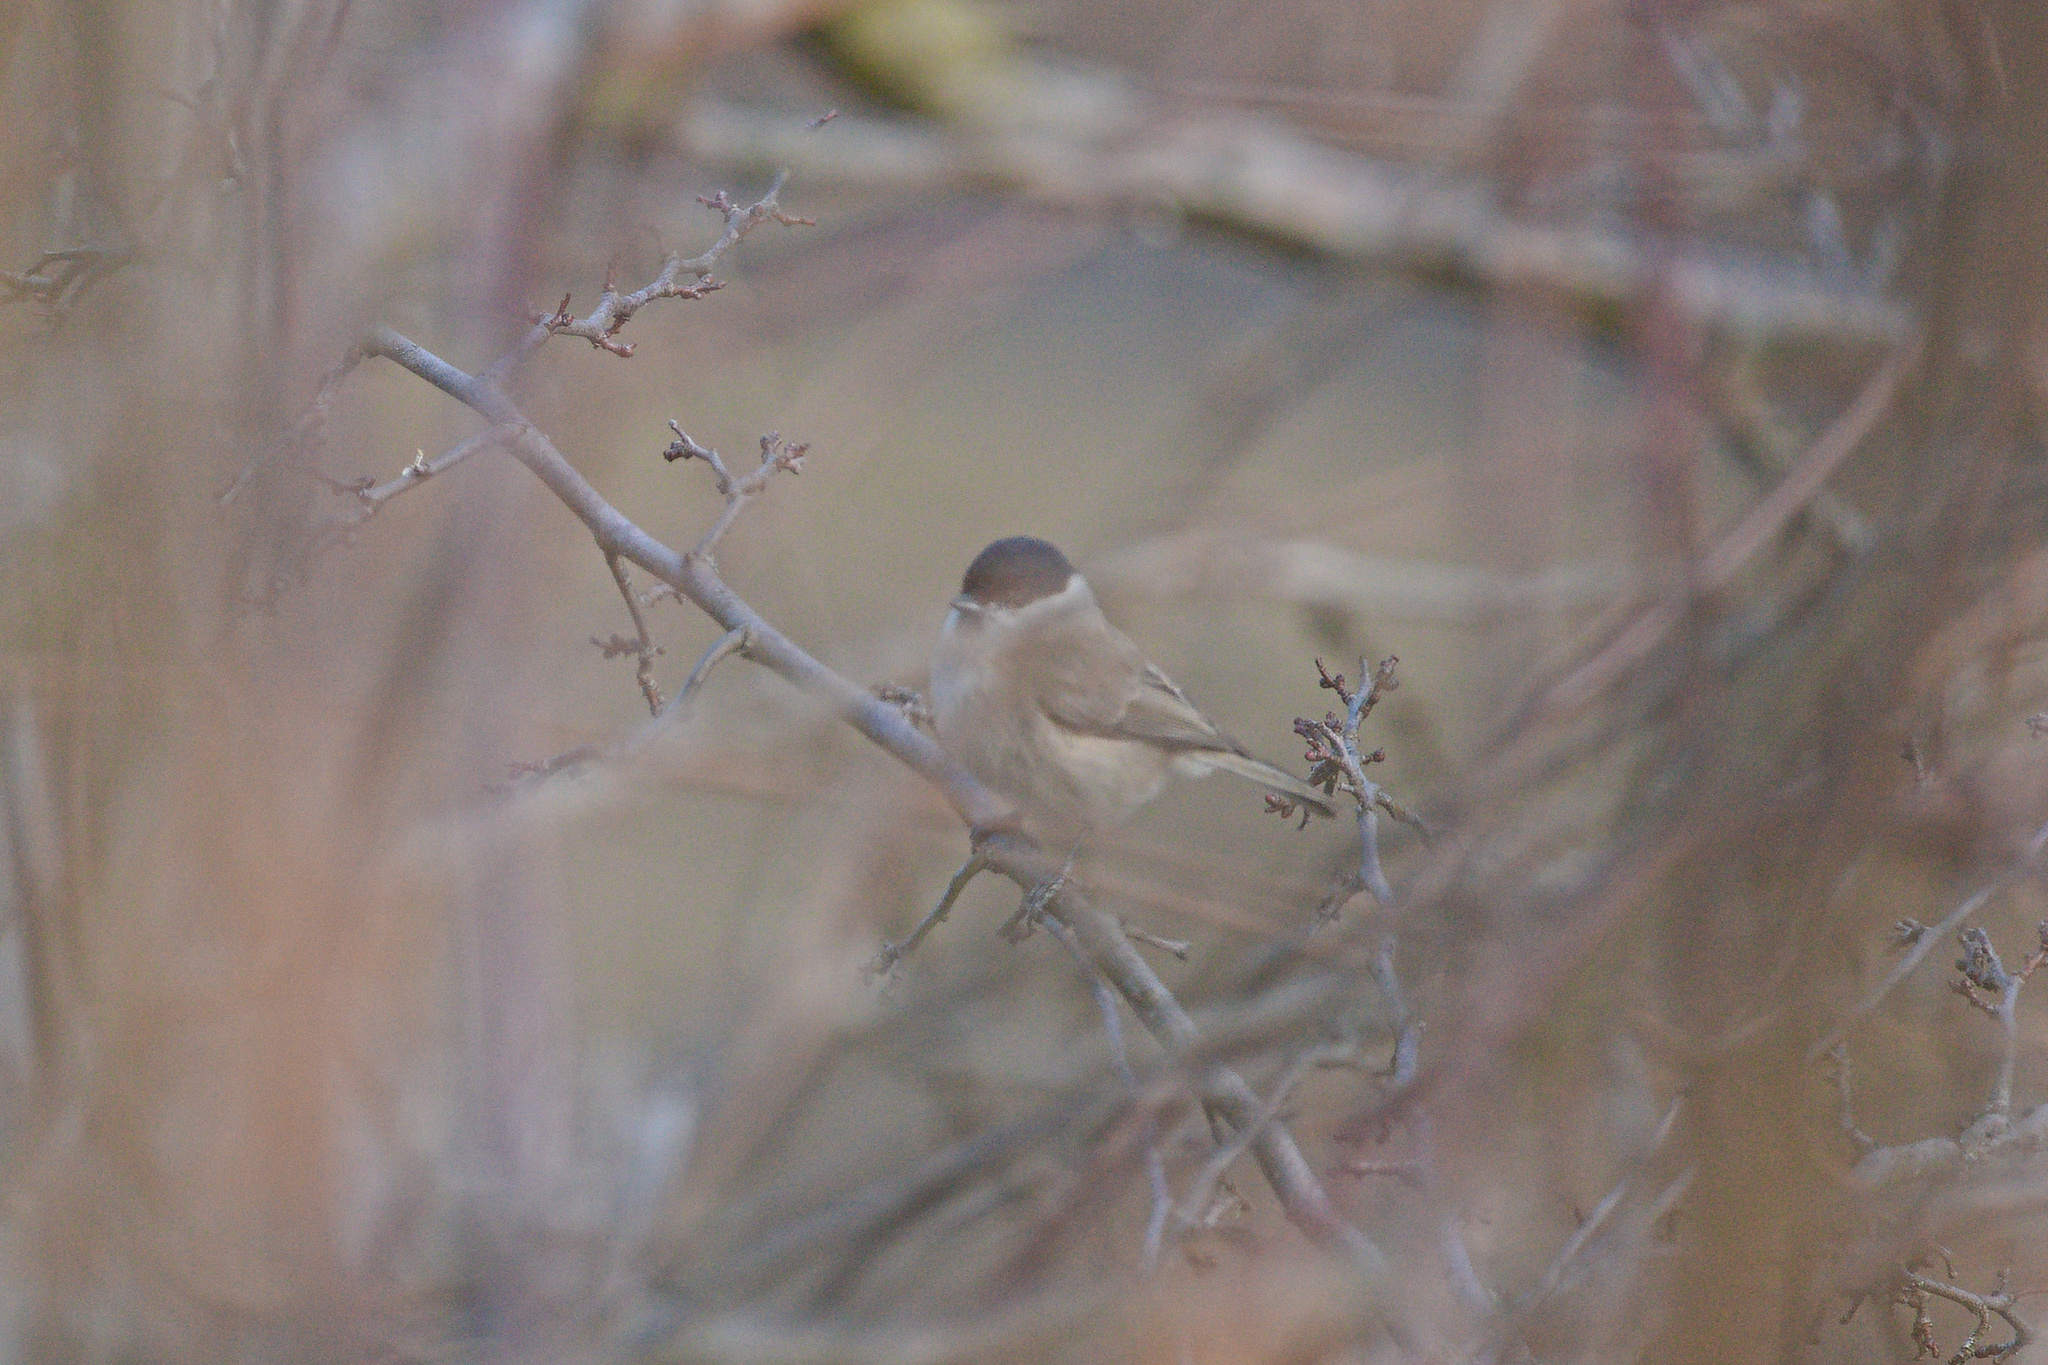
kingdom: Animalia
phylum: Chordata
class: Aves
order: Passeriformes
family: Paridae
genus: Poecile
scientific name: Poecile palustris
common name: Marsh tit
